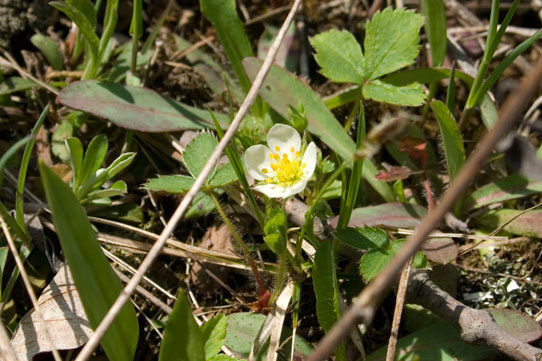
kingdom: Plantae
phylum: Tracheophyta
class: Magnoliopsida
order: Rosales
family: Rosaceae
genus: Fragaria
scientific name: Fragaria virginiana
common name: Thickleaved wild strawberry
